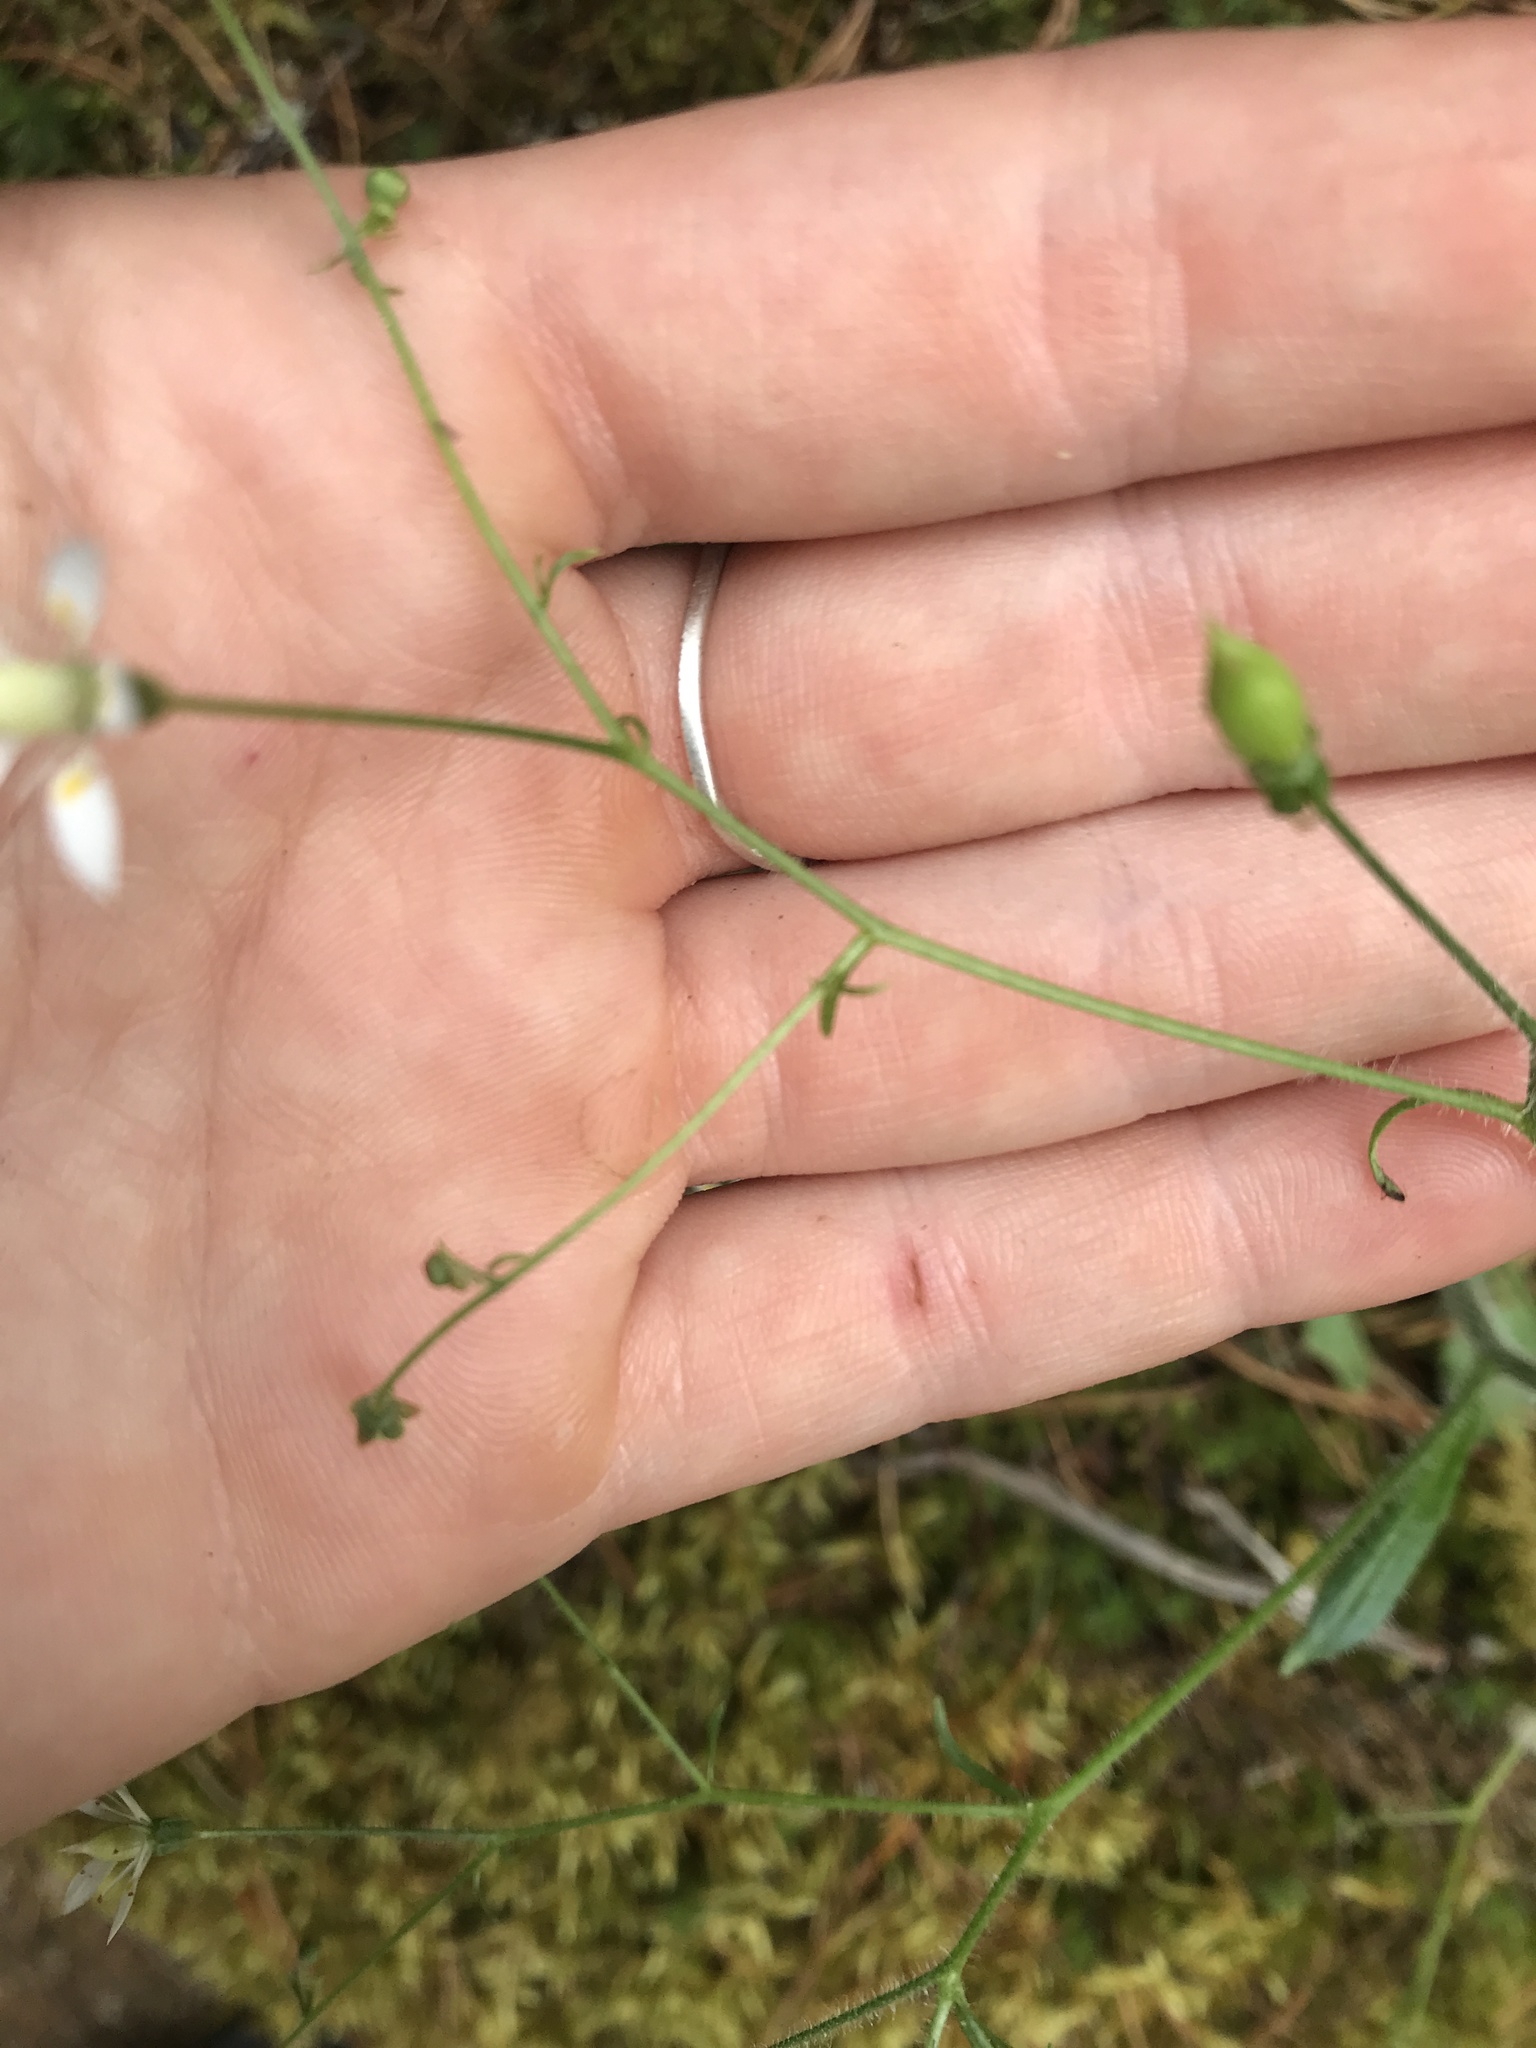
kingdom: Plantae
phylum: Tracheophyta
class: Magnoliopsida
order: Saxifragales
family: Saxifragaceae
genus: Micranthes
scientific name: Micranthes ferruginea
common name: Rusty saxifrage
